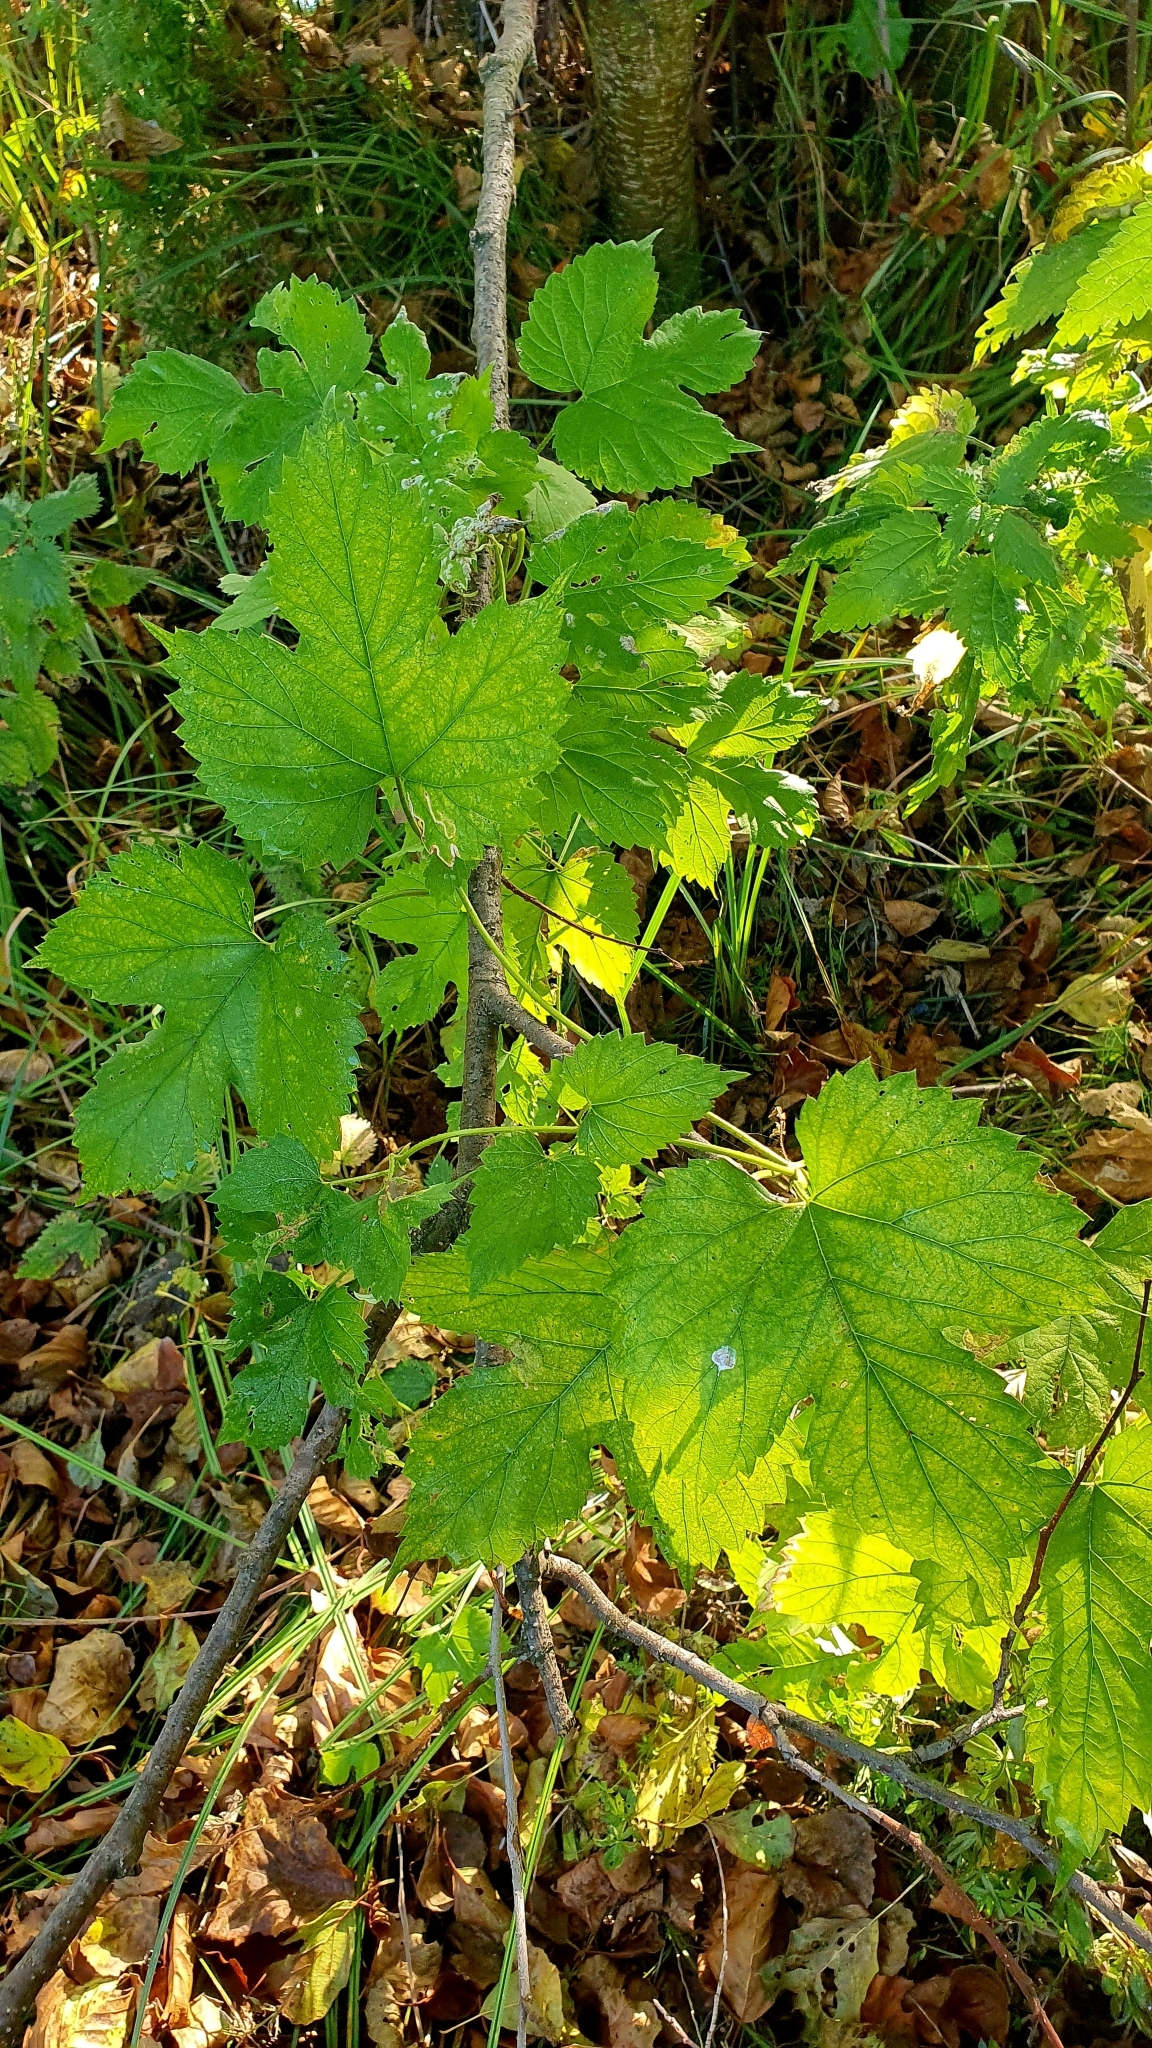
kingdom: Plantae
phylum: Tracheophyta
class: Magnoliopsida
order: Rosales
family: Cannabaceae
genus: Humulus
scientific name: Humulus lupulus
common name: Hop
